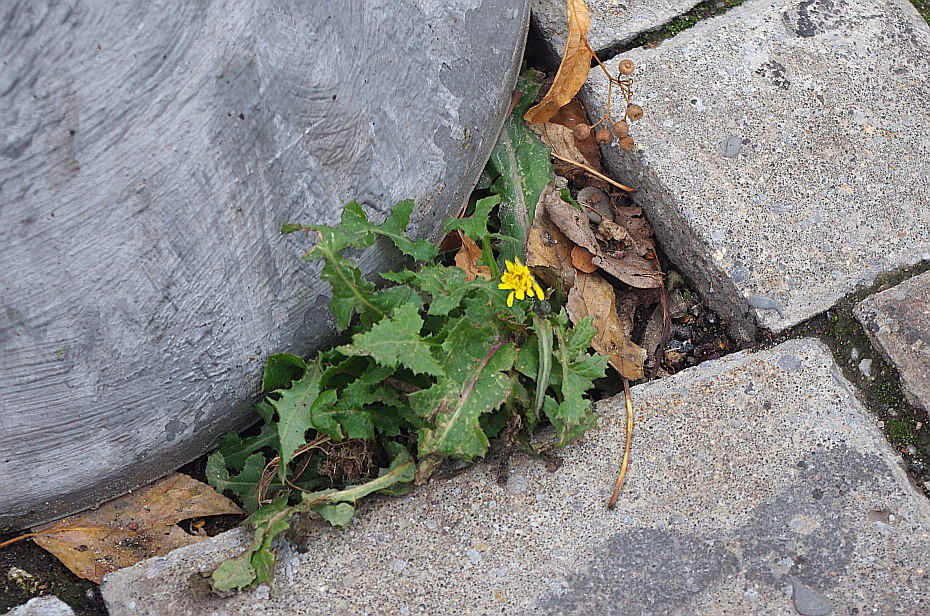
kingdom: Plantae
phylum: Tracheophyta
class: Magnoliopsida
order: Asterales
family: Asteraceae
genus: Sonchus
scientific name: Sonchus oleraceus
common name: Common sowthistle
